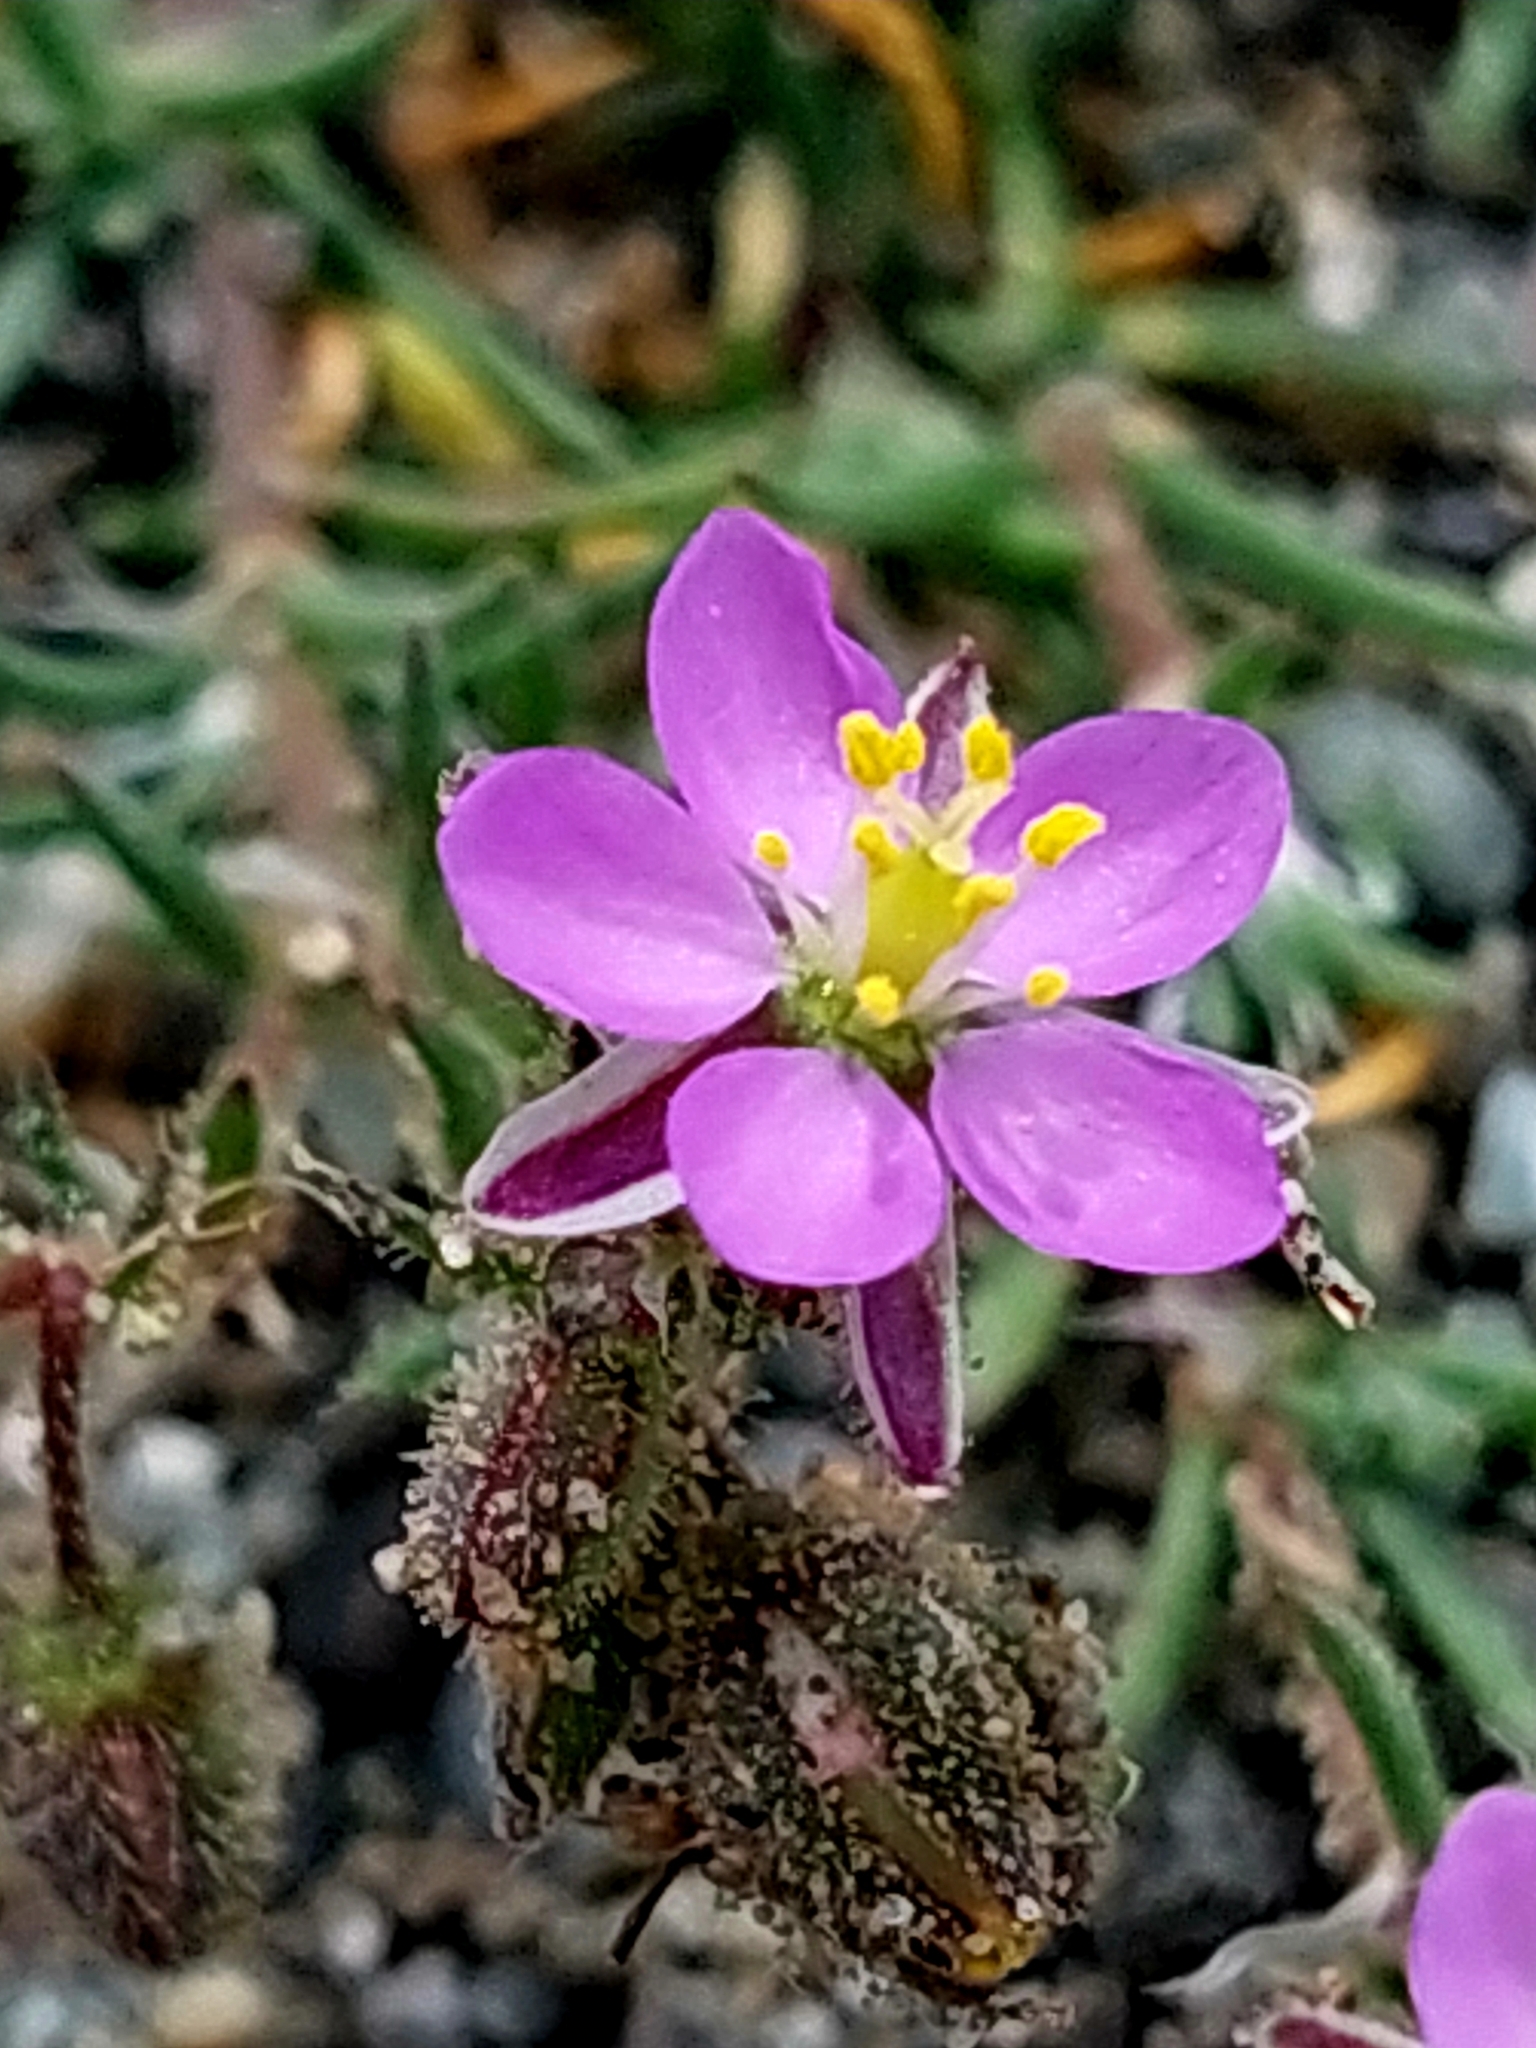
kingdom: Plantae
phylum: Tracheophyta
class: Magnoliopsida
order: Caryophyllales
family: Caryophyllaceae
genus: Spergularia
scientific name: Spergularia rubra
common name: Red sand-spurrey
